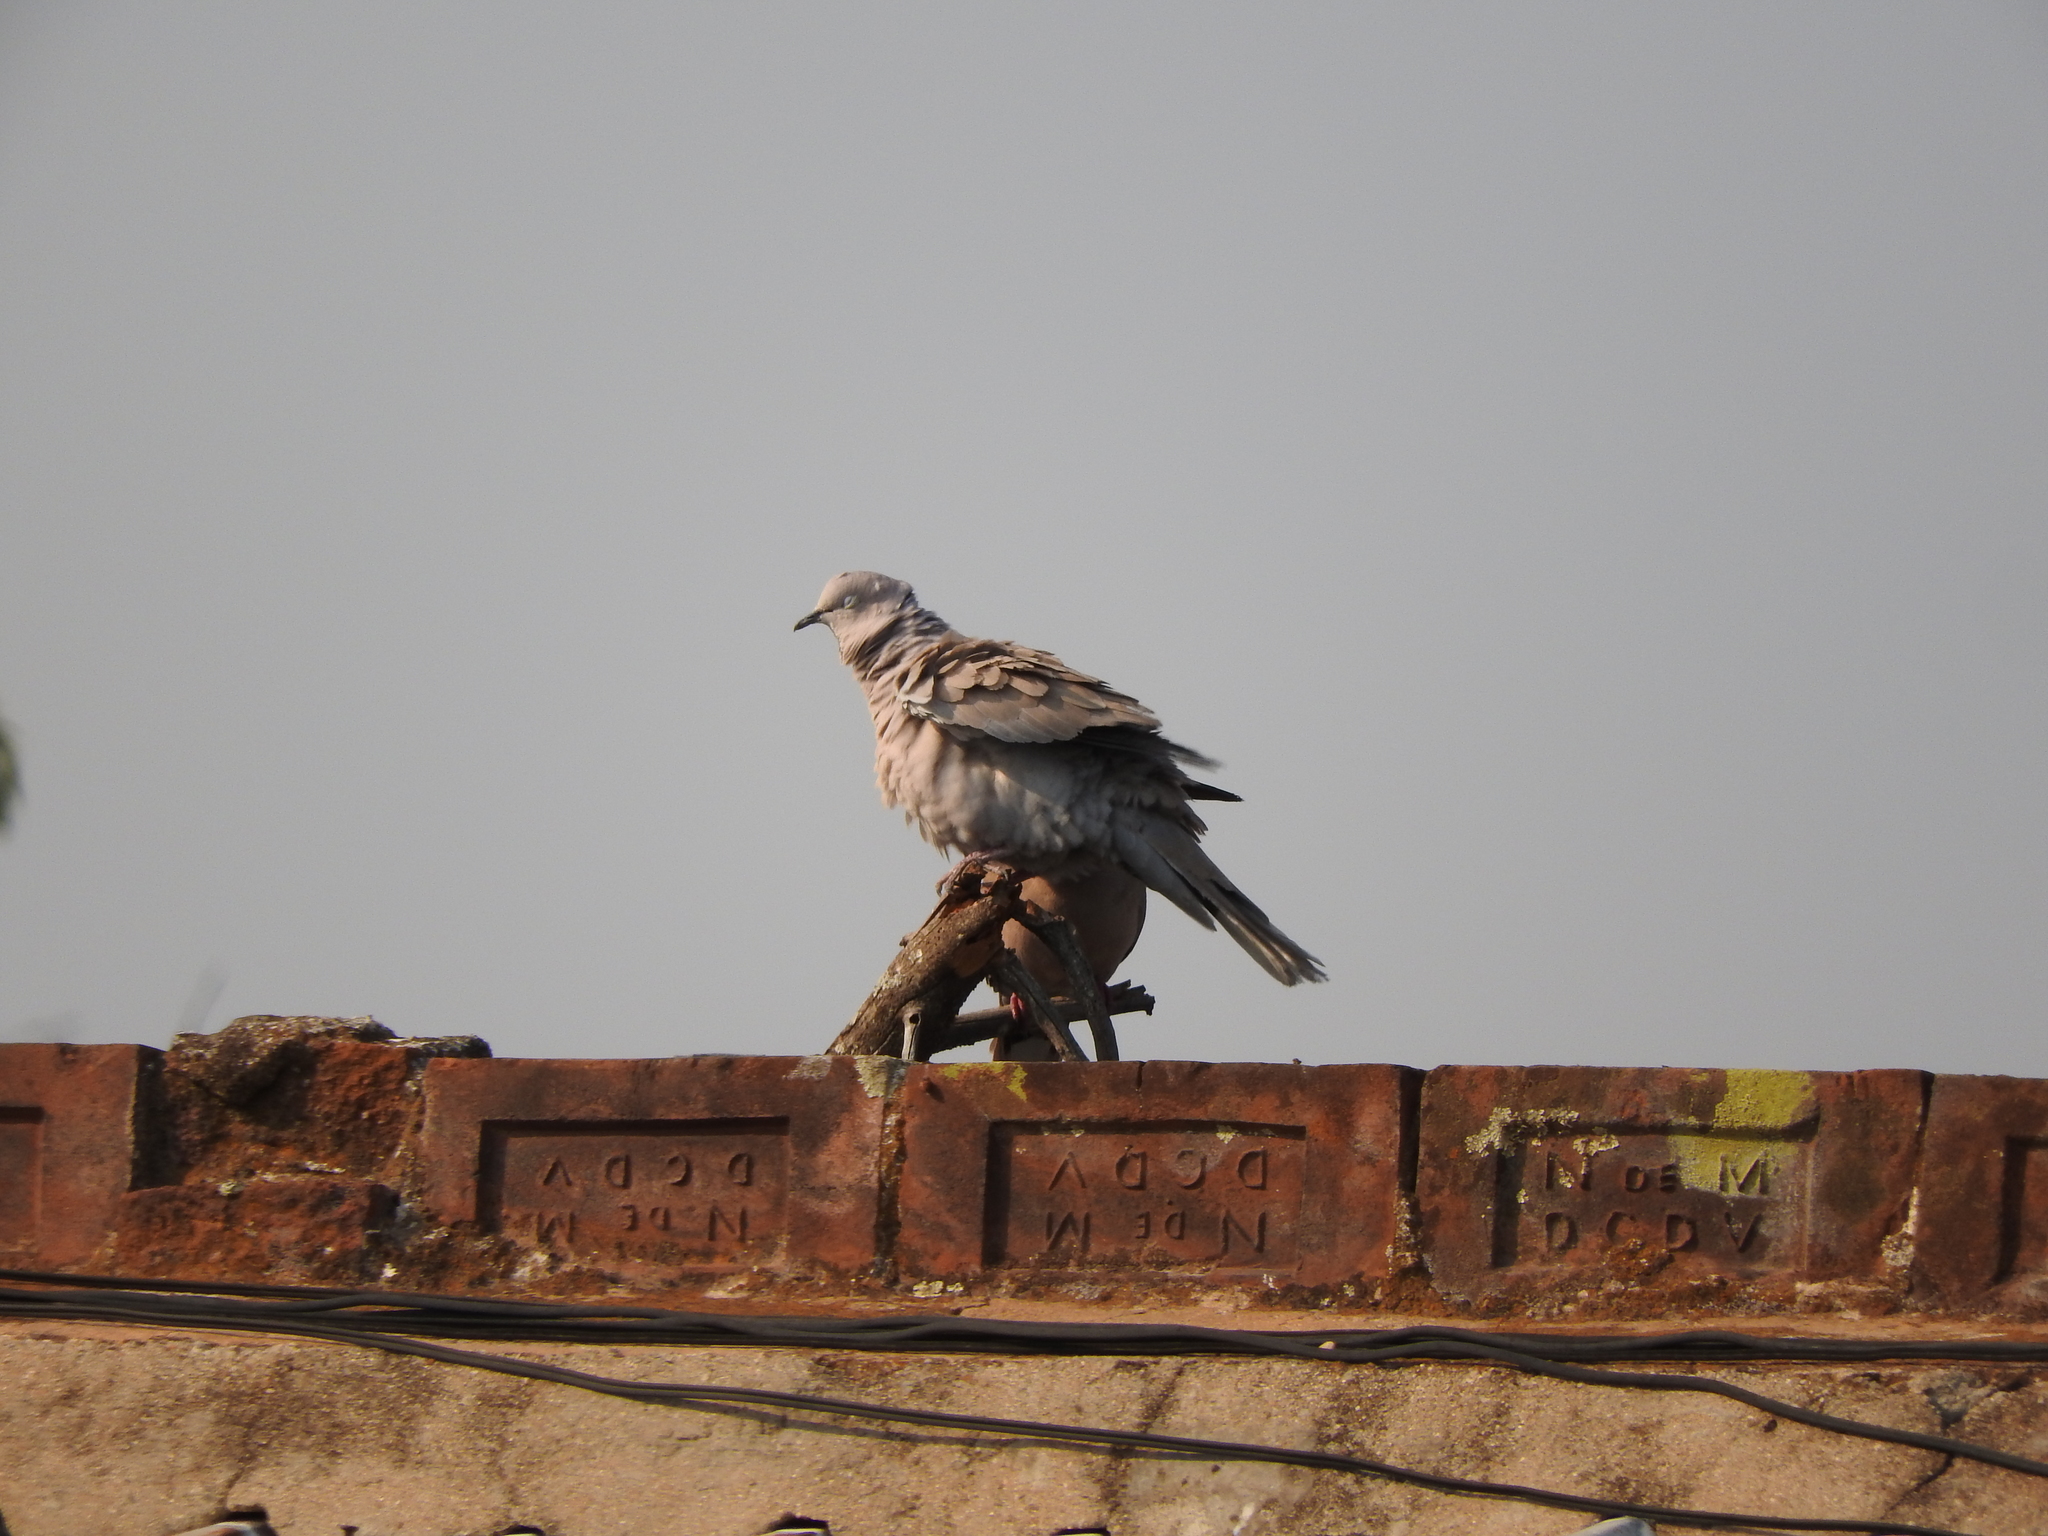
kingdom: Animalia
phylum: Chordata
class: Aves
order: Columbiformes
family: Columbidae
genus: Streptopelia
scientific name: Streptopelia decaocto
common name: Eurasian collared dove
